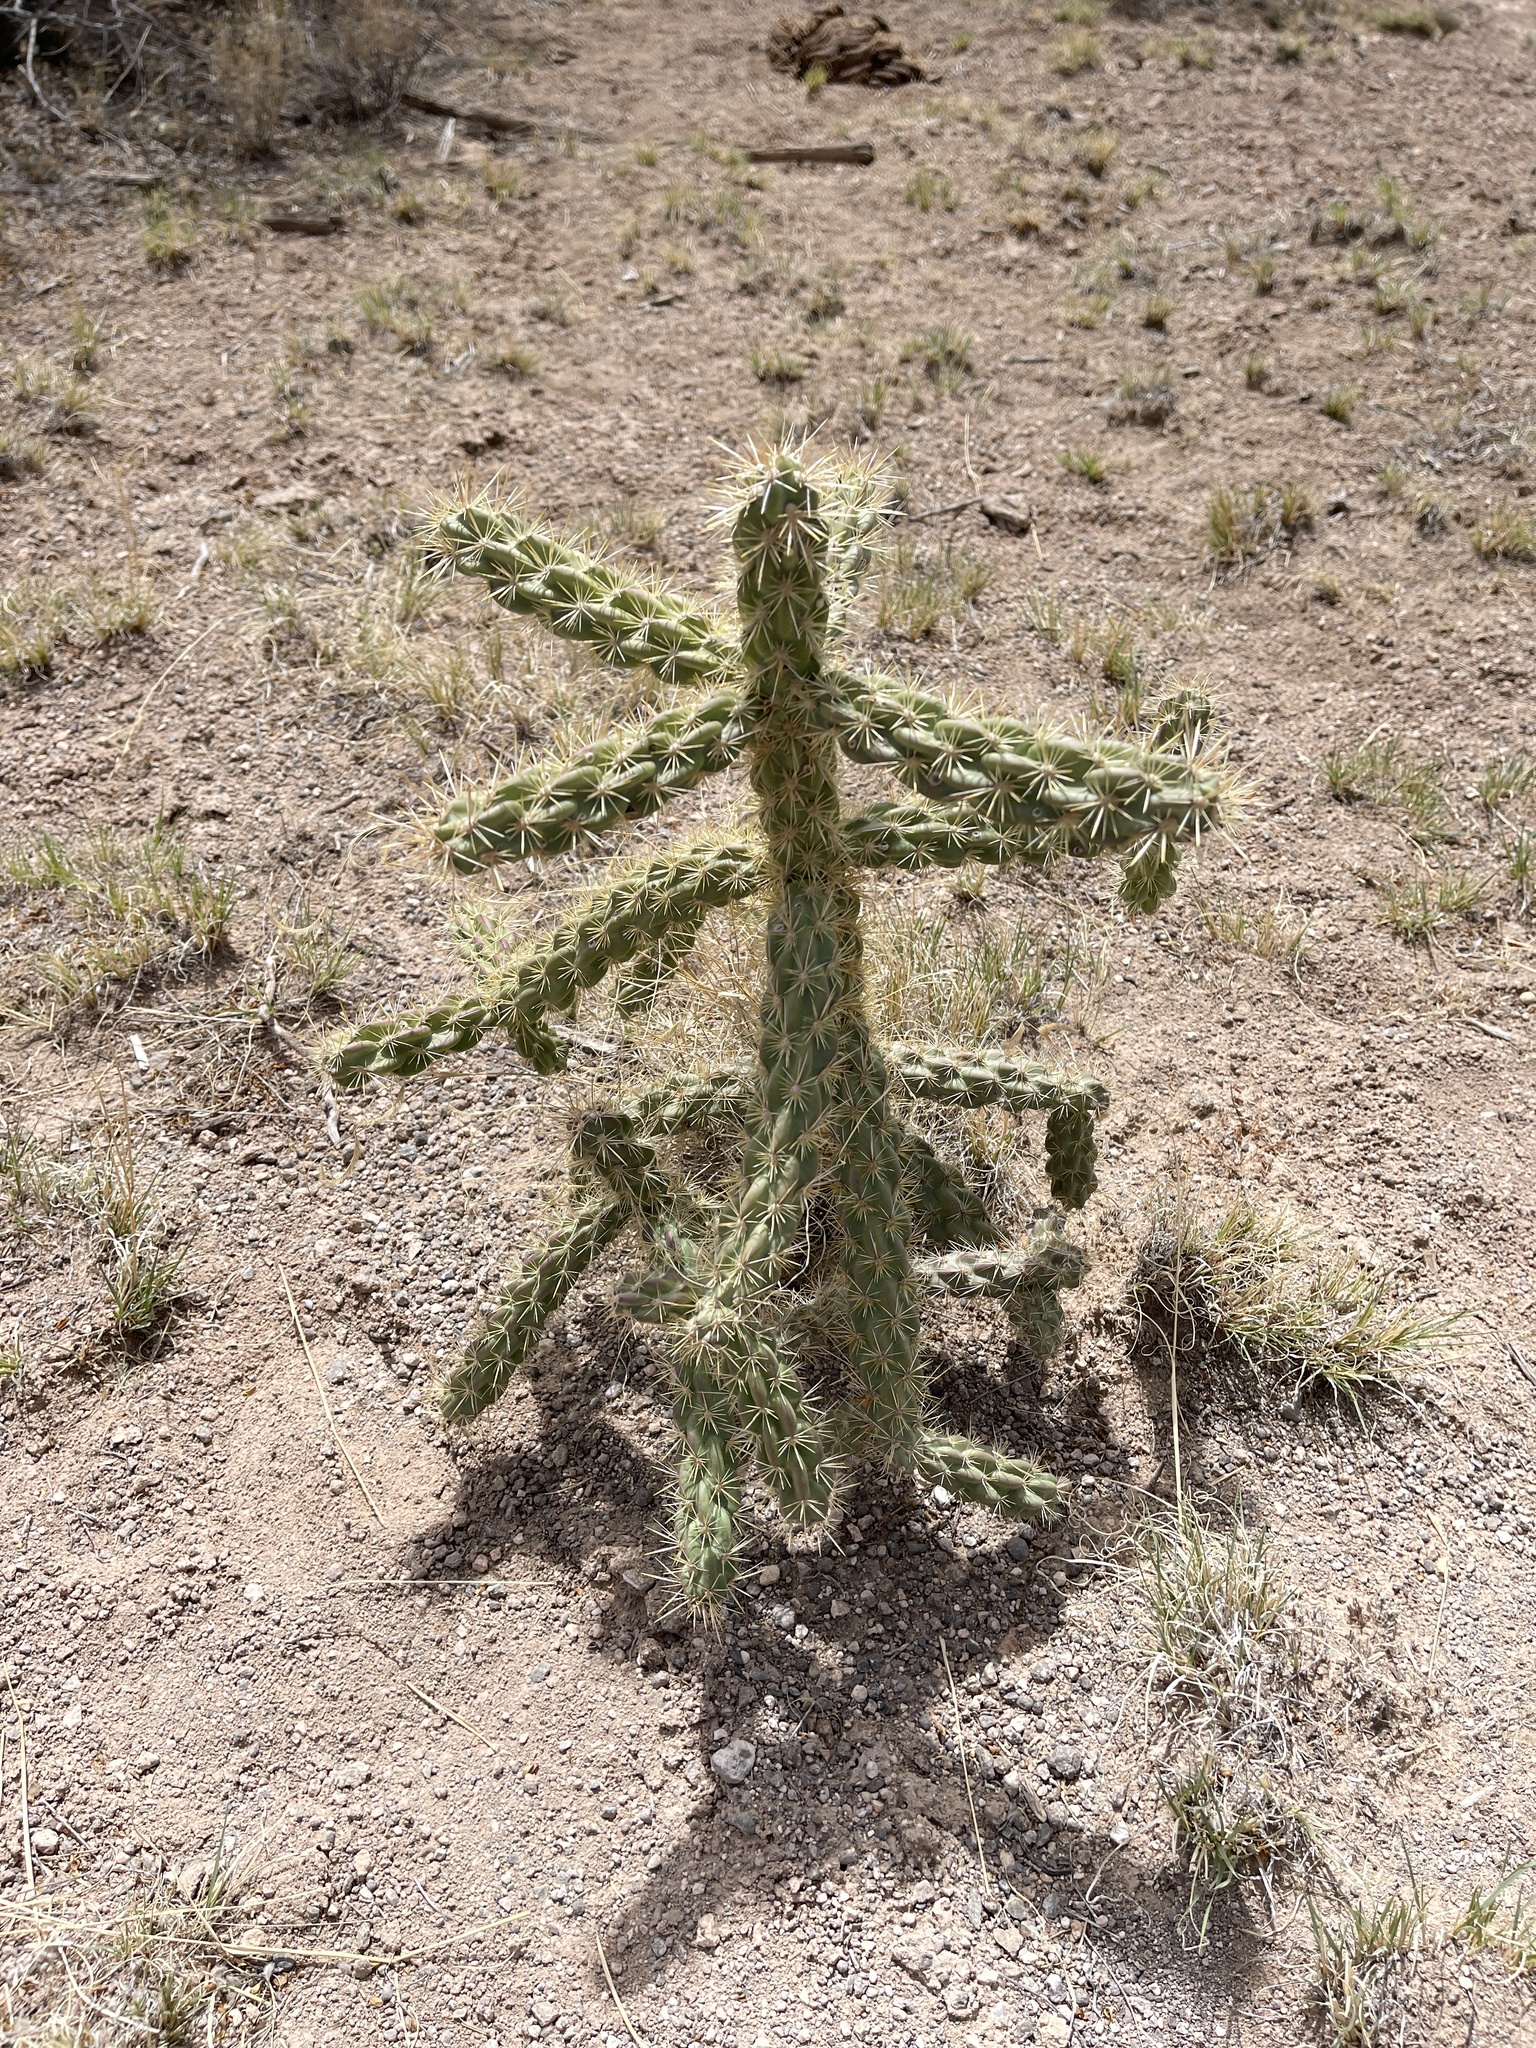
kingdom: Plantae
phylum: Tracheophyta
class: Magnoliopsida
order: Caryophyllales
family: Cactaceae
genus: Cylindropuntia
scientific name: Cylindropuntia imbricata
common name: Candelabrum cactus
